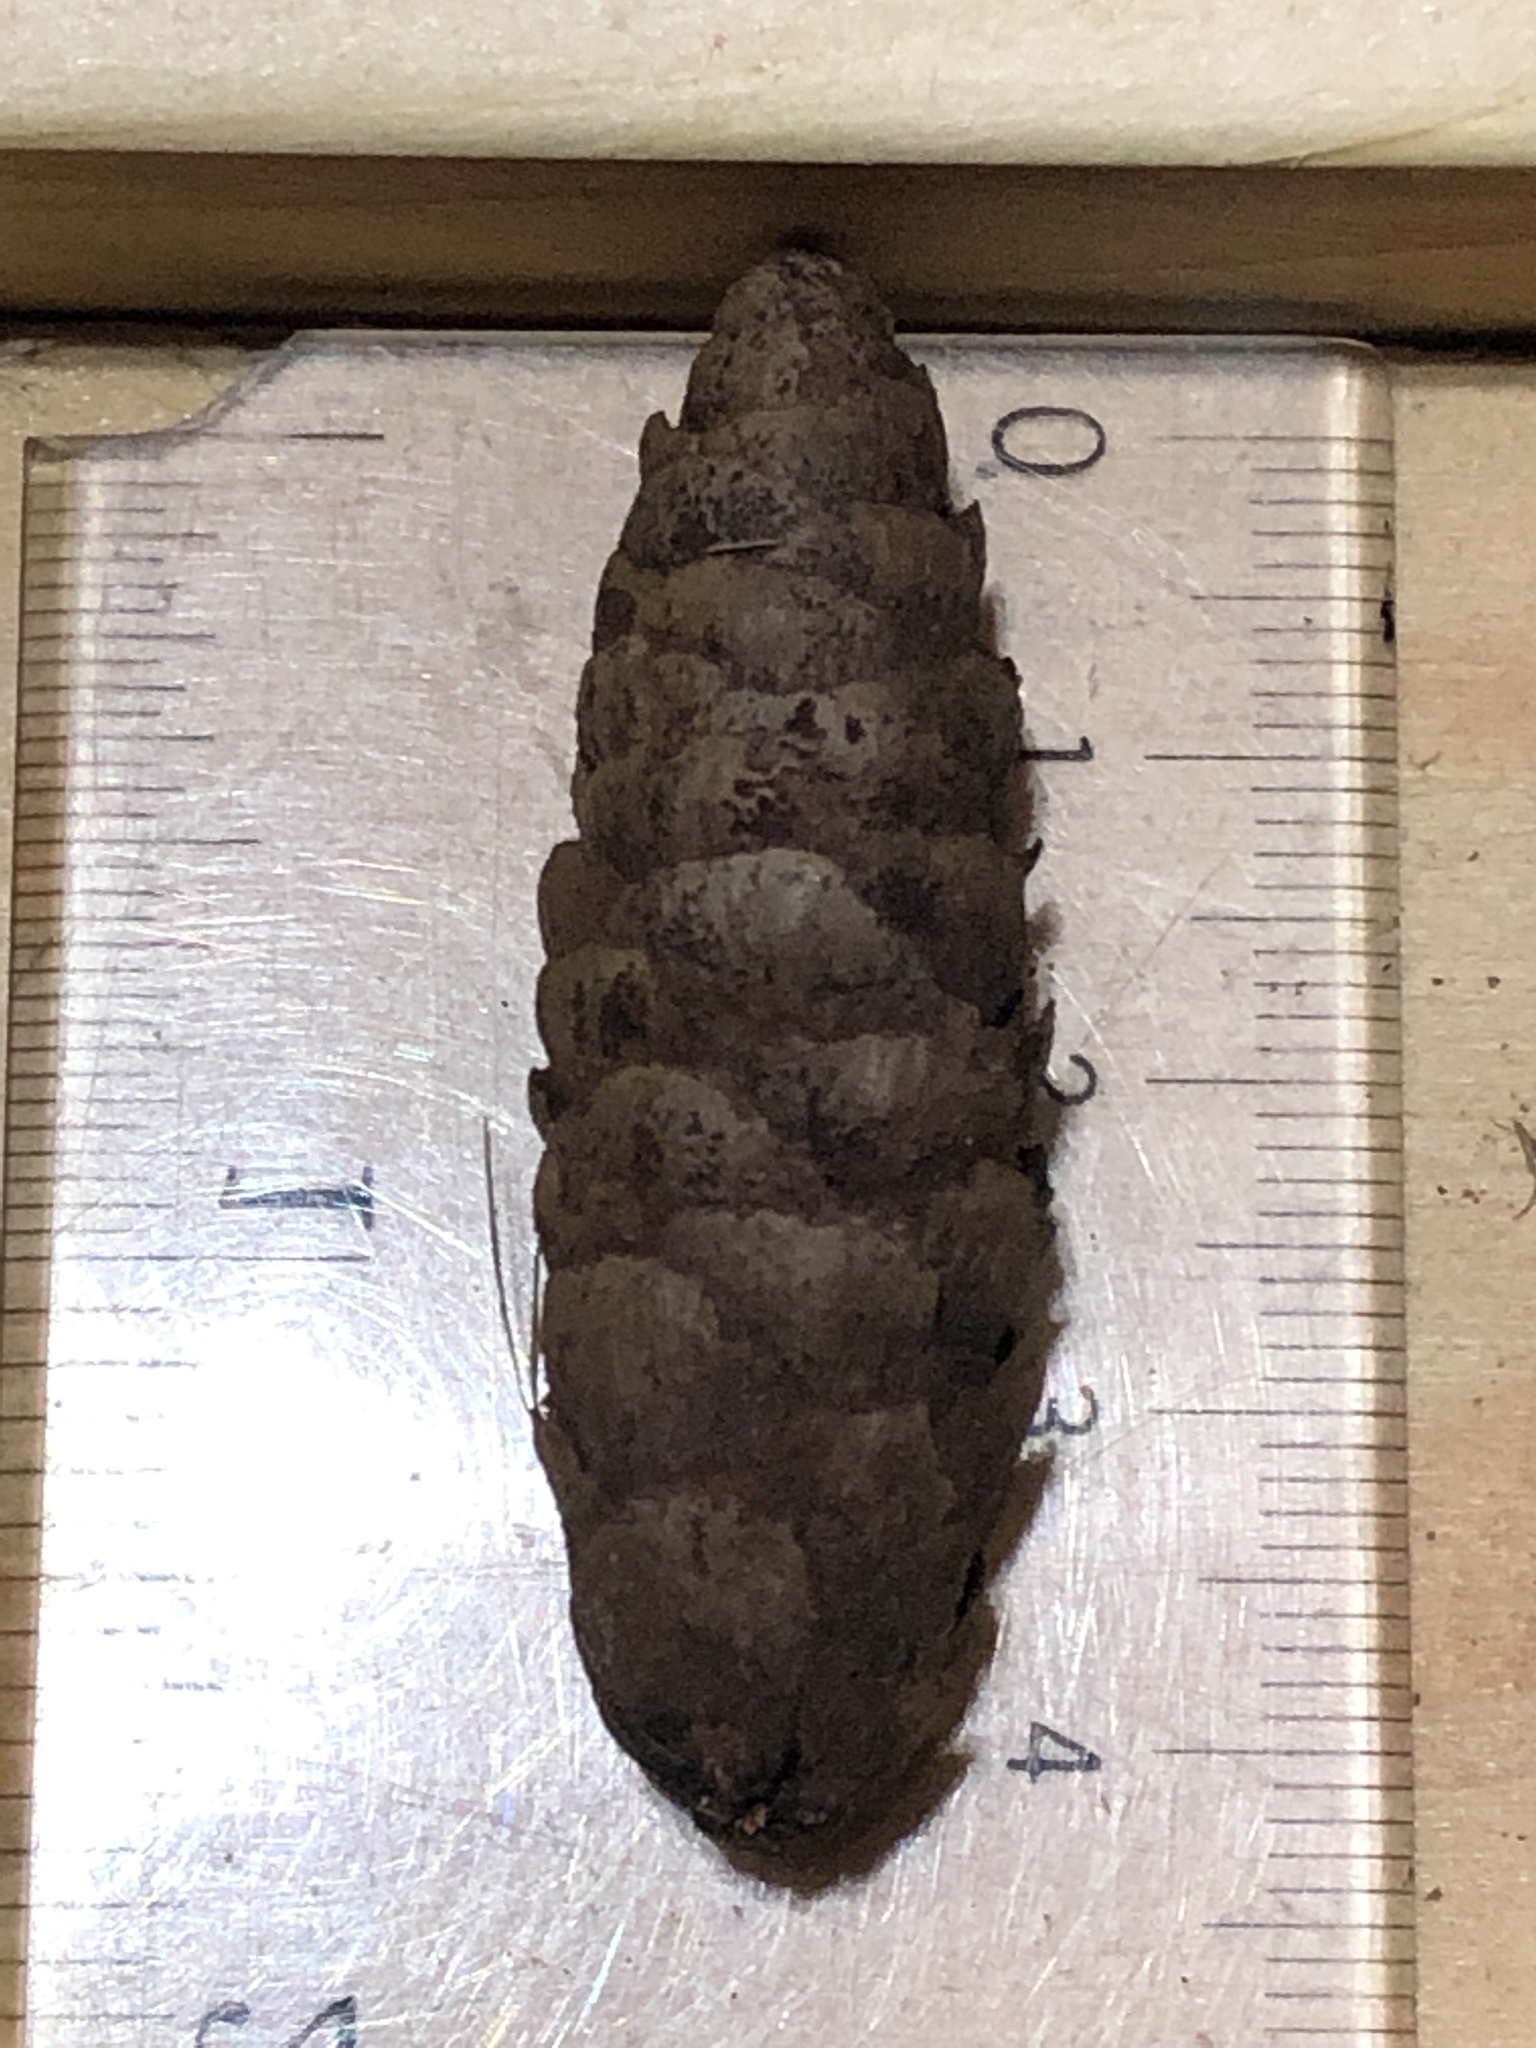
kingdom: Plantae
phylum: Tracheophyta
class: Pinopsida
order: Pinales
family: Pinaceae
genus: Picea
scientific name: Picea glauca
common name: White spruce
